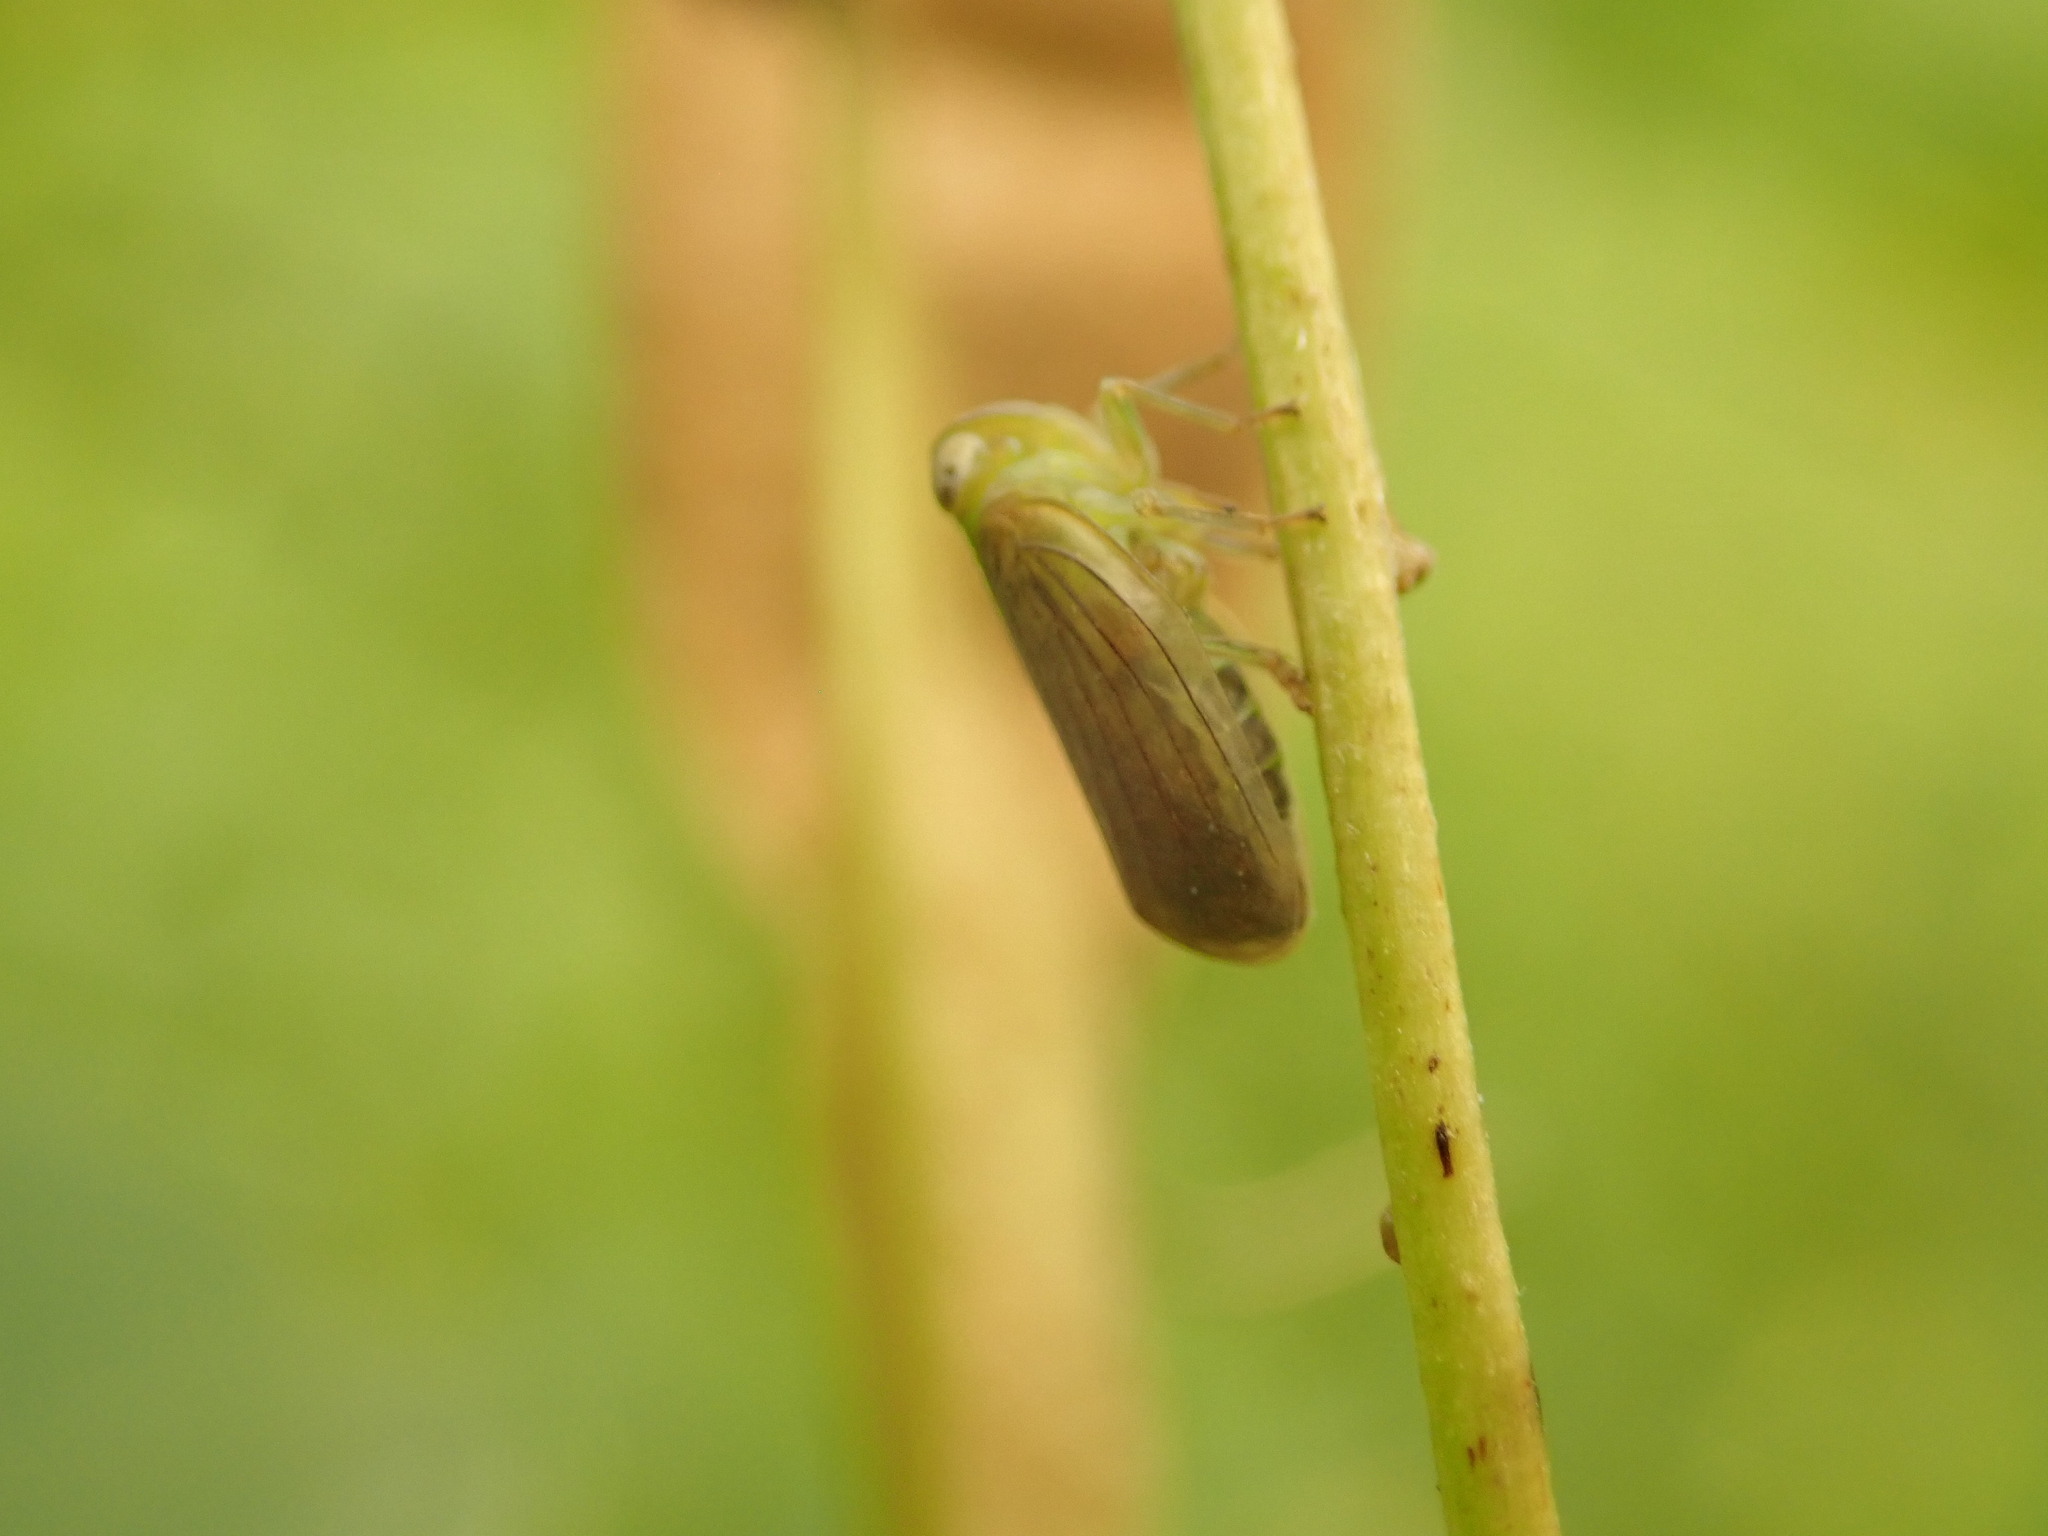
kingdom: Animalia
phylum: Arthropoda
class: Insecta
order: Hemiptera
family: Issidae
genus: Aplos
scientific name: Aplos simplex
